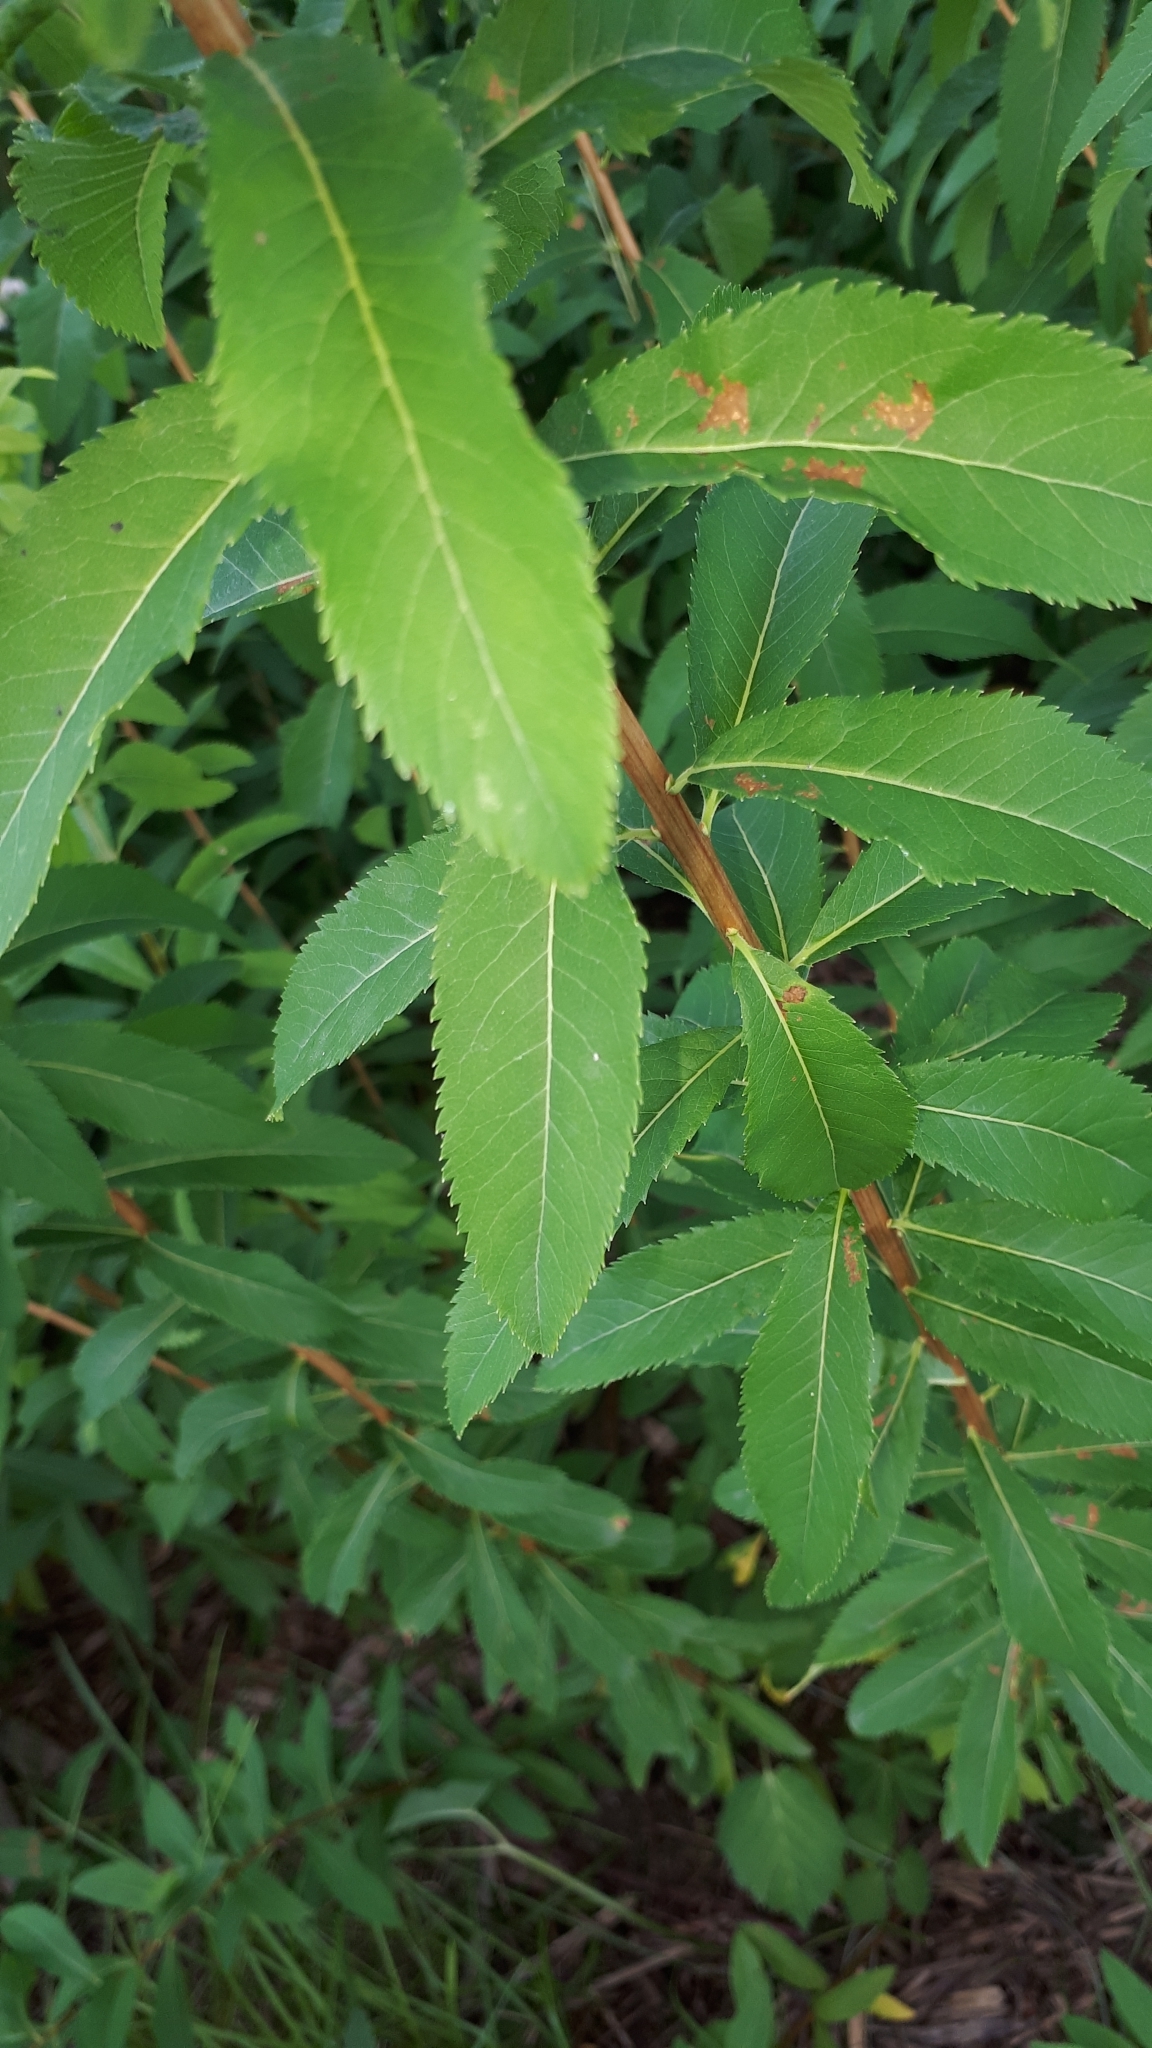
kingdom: Plantae
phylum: Tracheophyta
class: Magnoliopsida
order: Rosales
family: Rosaceae
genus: Spiraea
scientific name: Spiraea alba
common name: Pale bridewort
